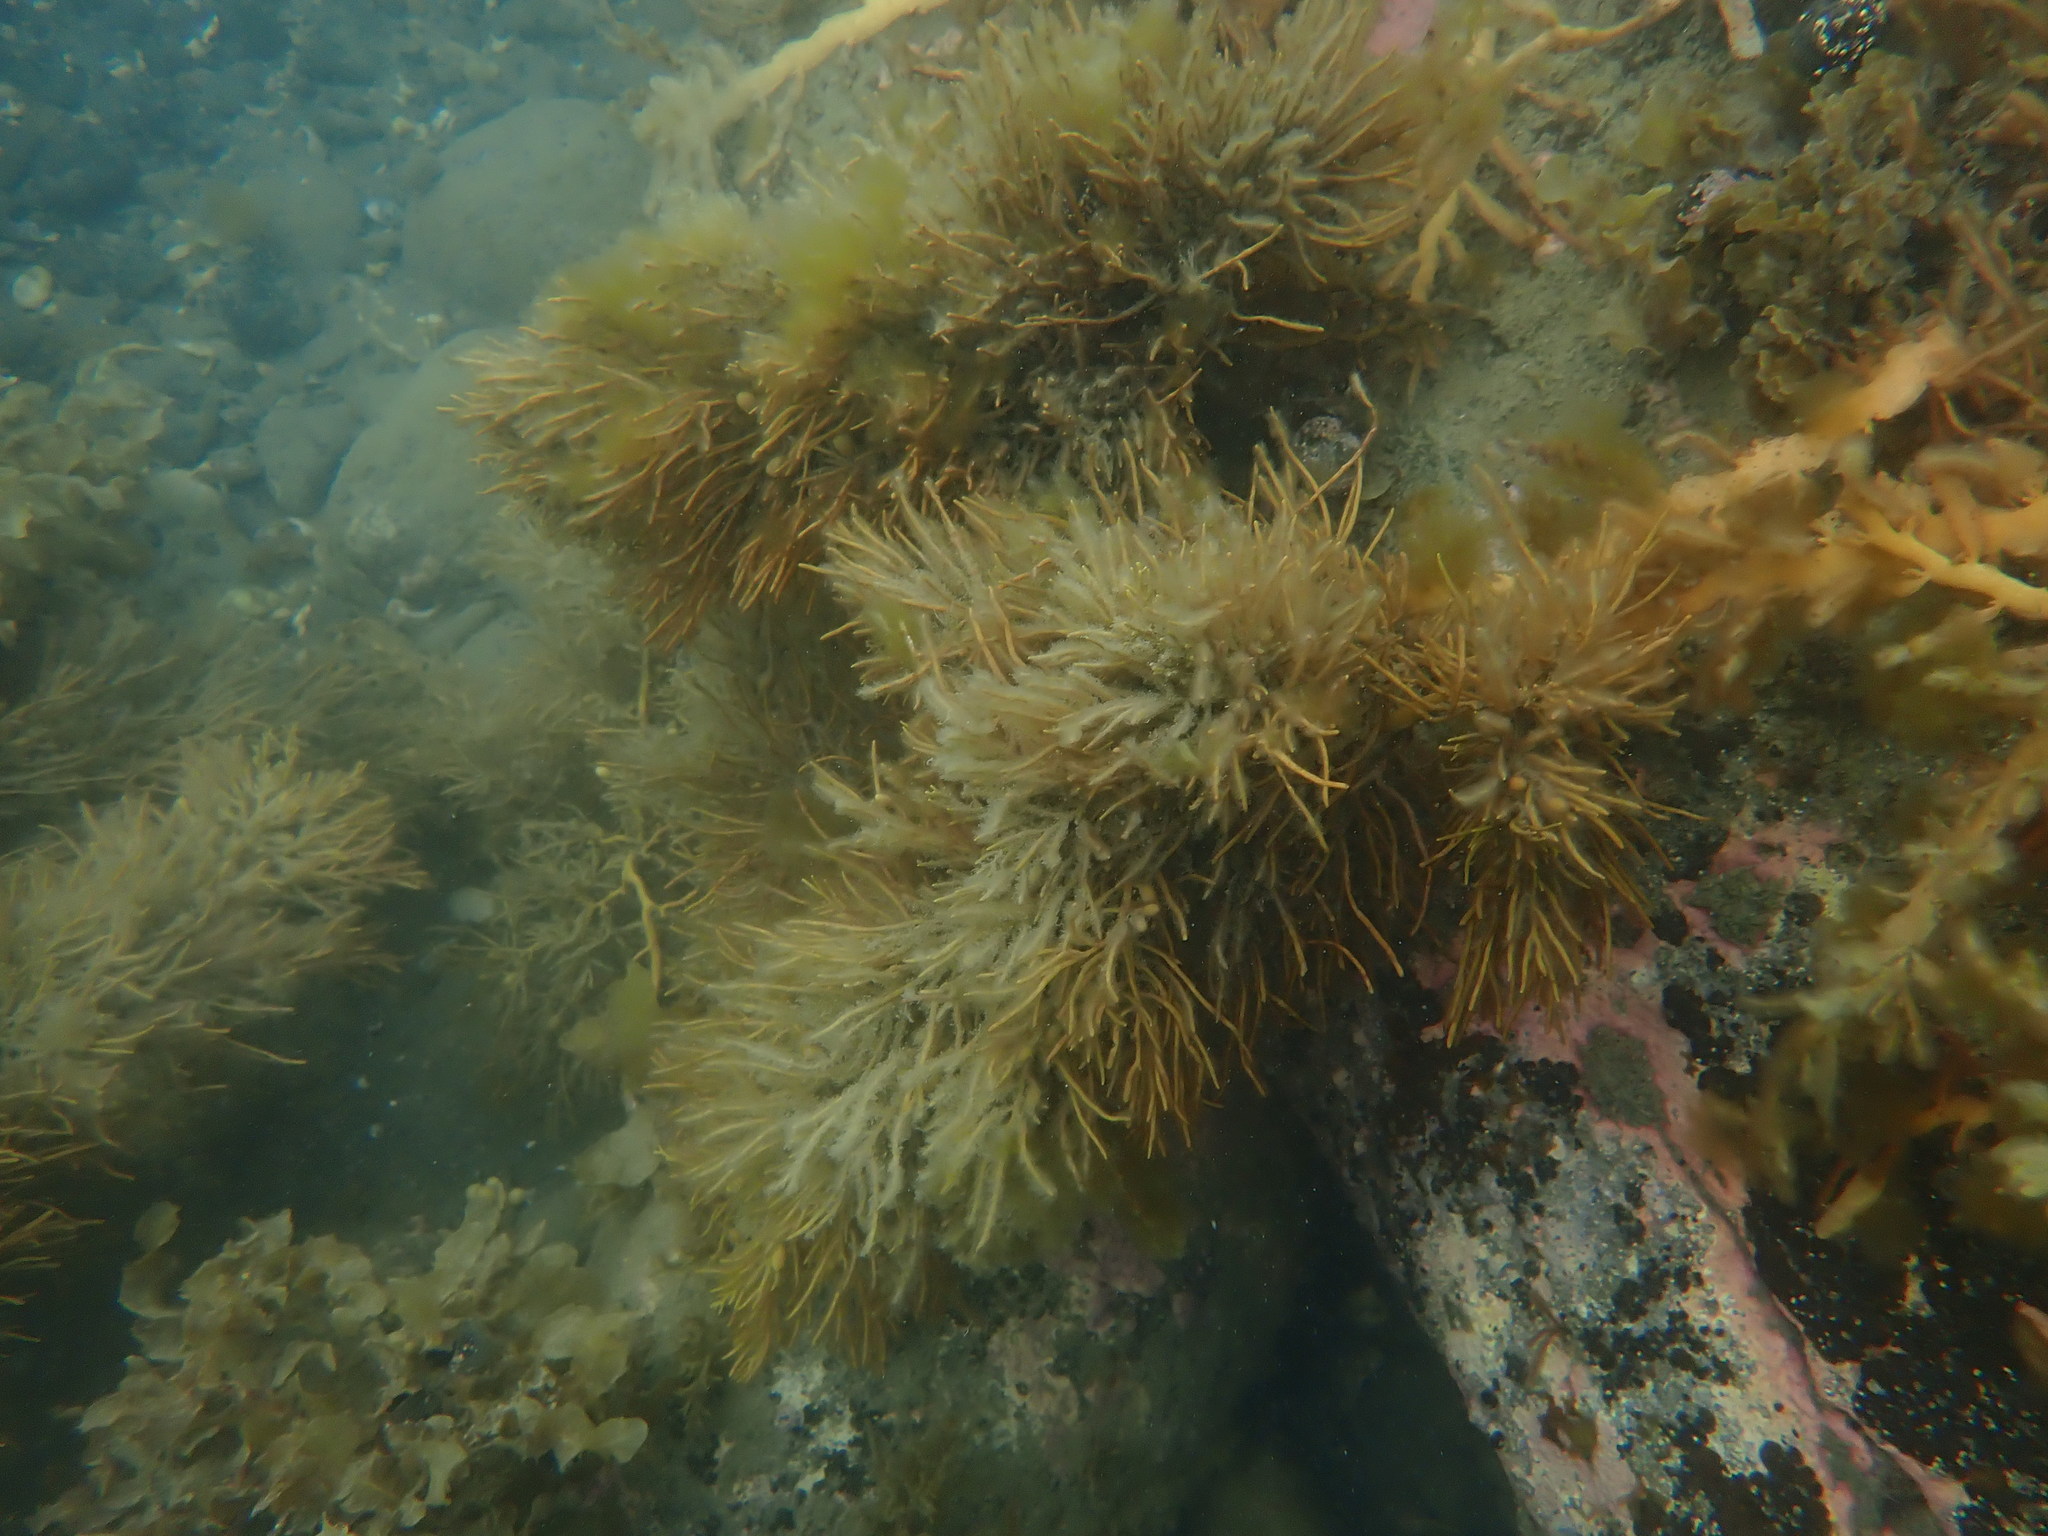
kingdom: Chromista
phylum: Ochrophyta
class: Phaeophyceae
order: Fucales
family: Sargassaceae
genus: Cystophora
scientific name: Cystophora retroflexa
